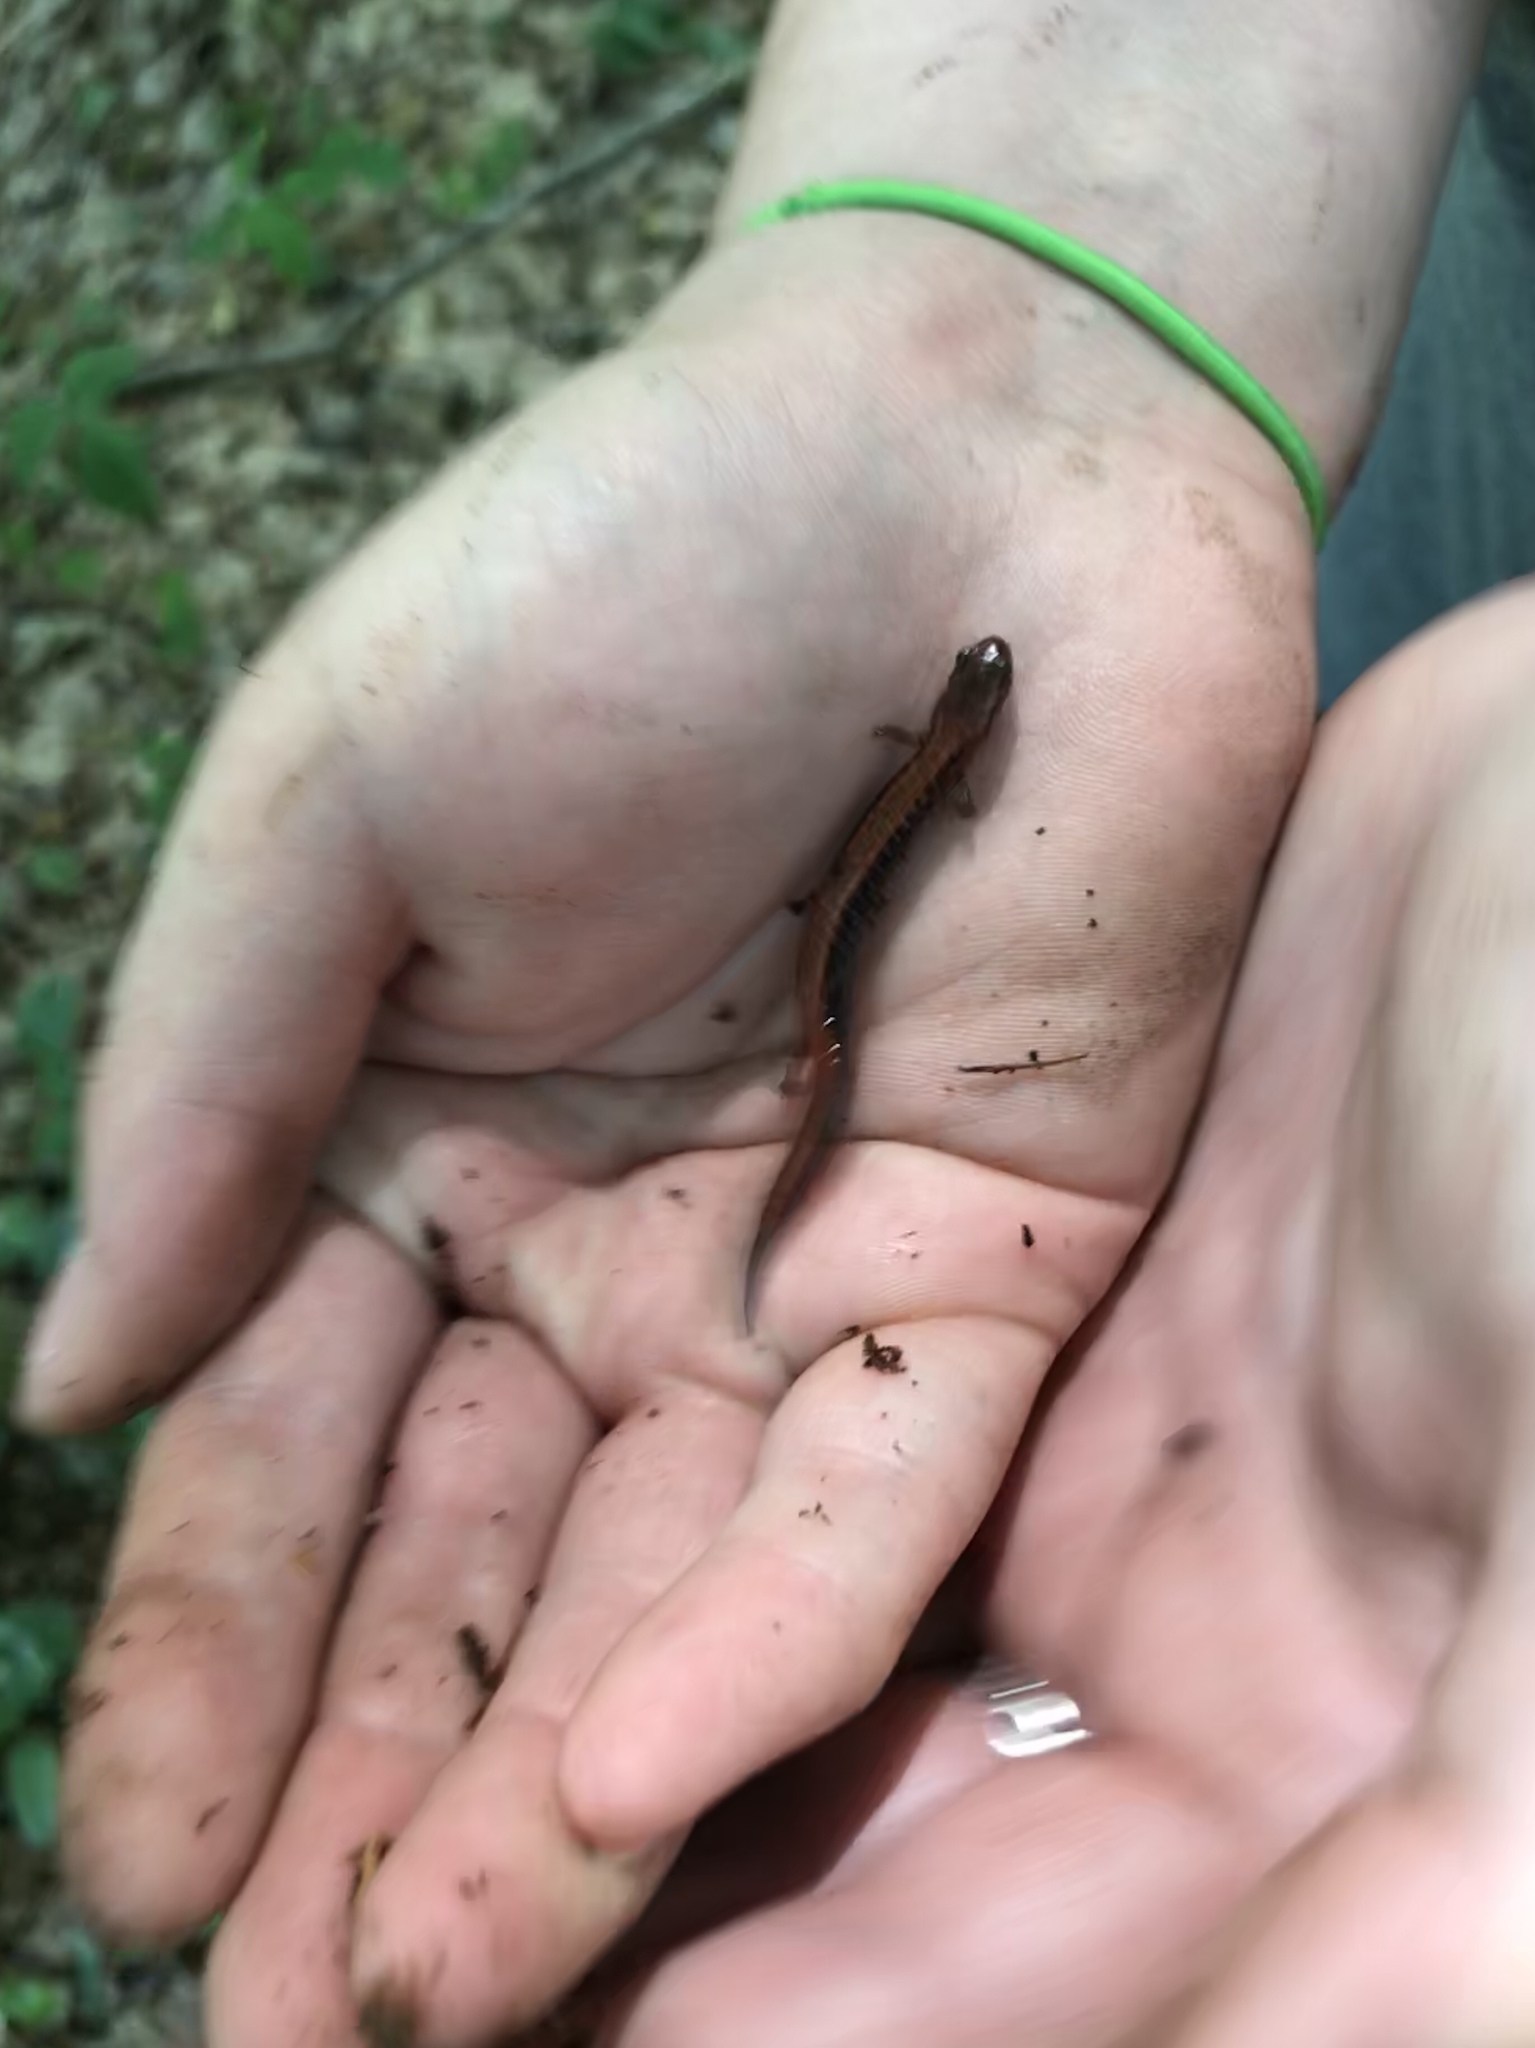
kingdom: Animalia
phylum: Chordata
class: Amphibia
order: Caudata
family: Plethodontidae
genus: Plethodon
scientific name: Plethodon cinereus
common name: Redback salamander
